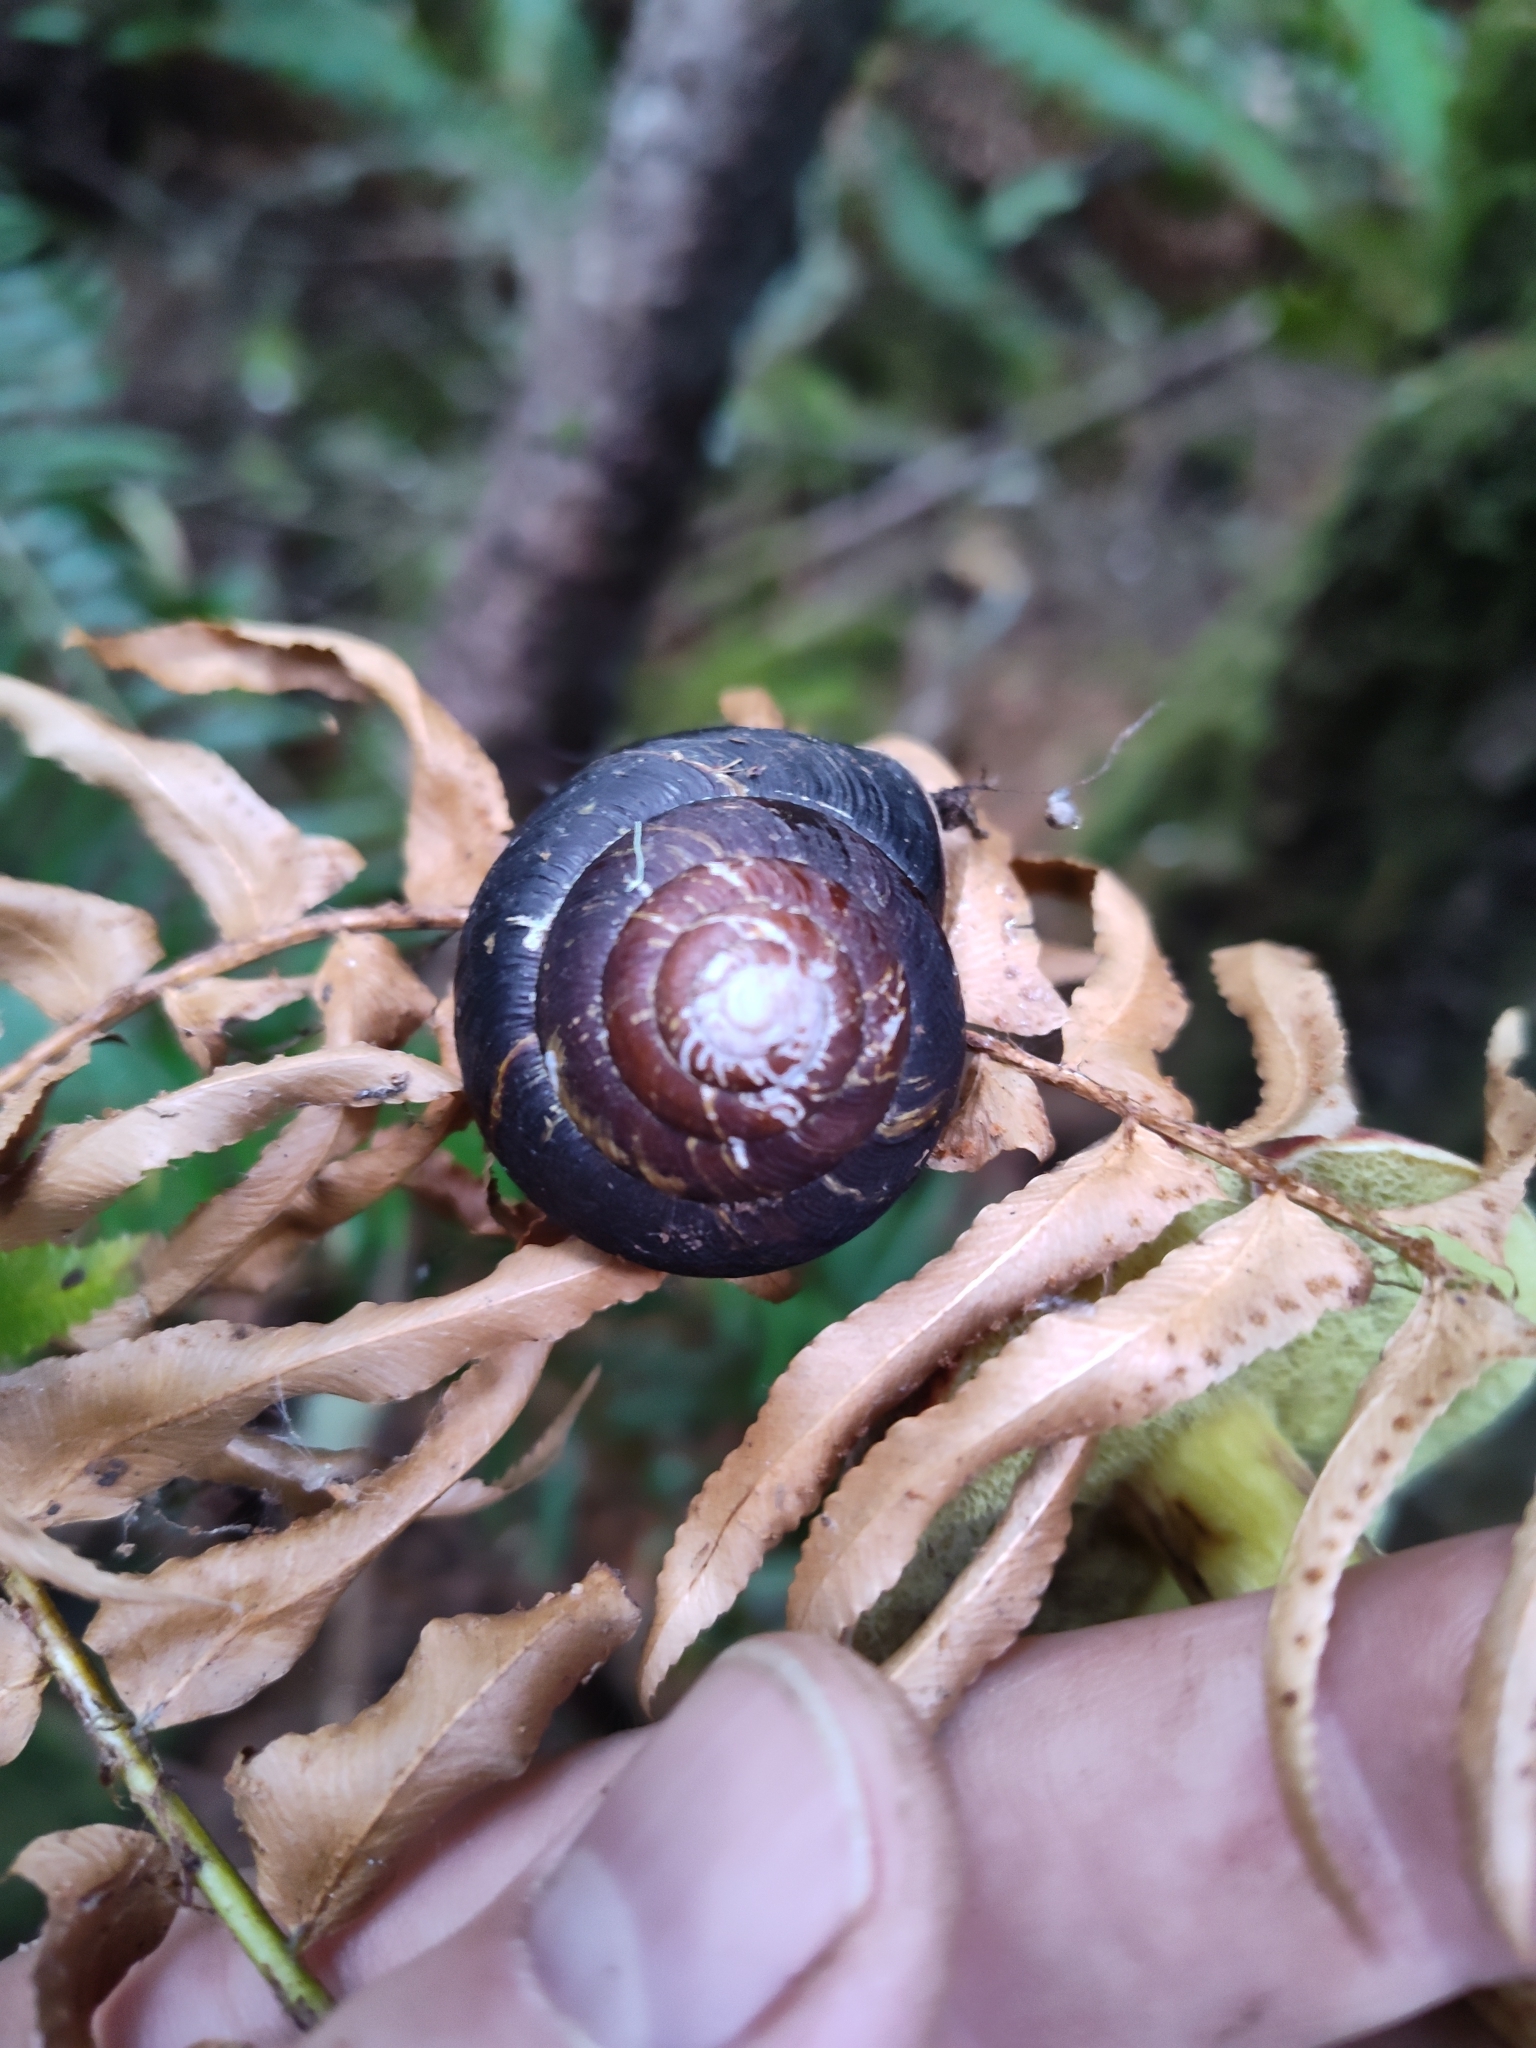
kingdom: Animalia
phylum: Mollusca
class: Gastropoda
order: Stylommatophora
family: Xanthonychidae
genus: Monadenia
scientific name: Monadenia fidelis
